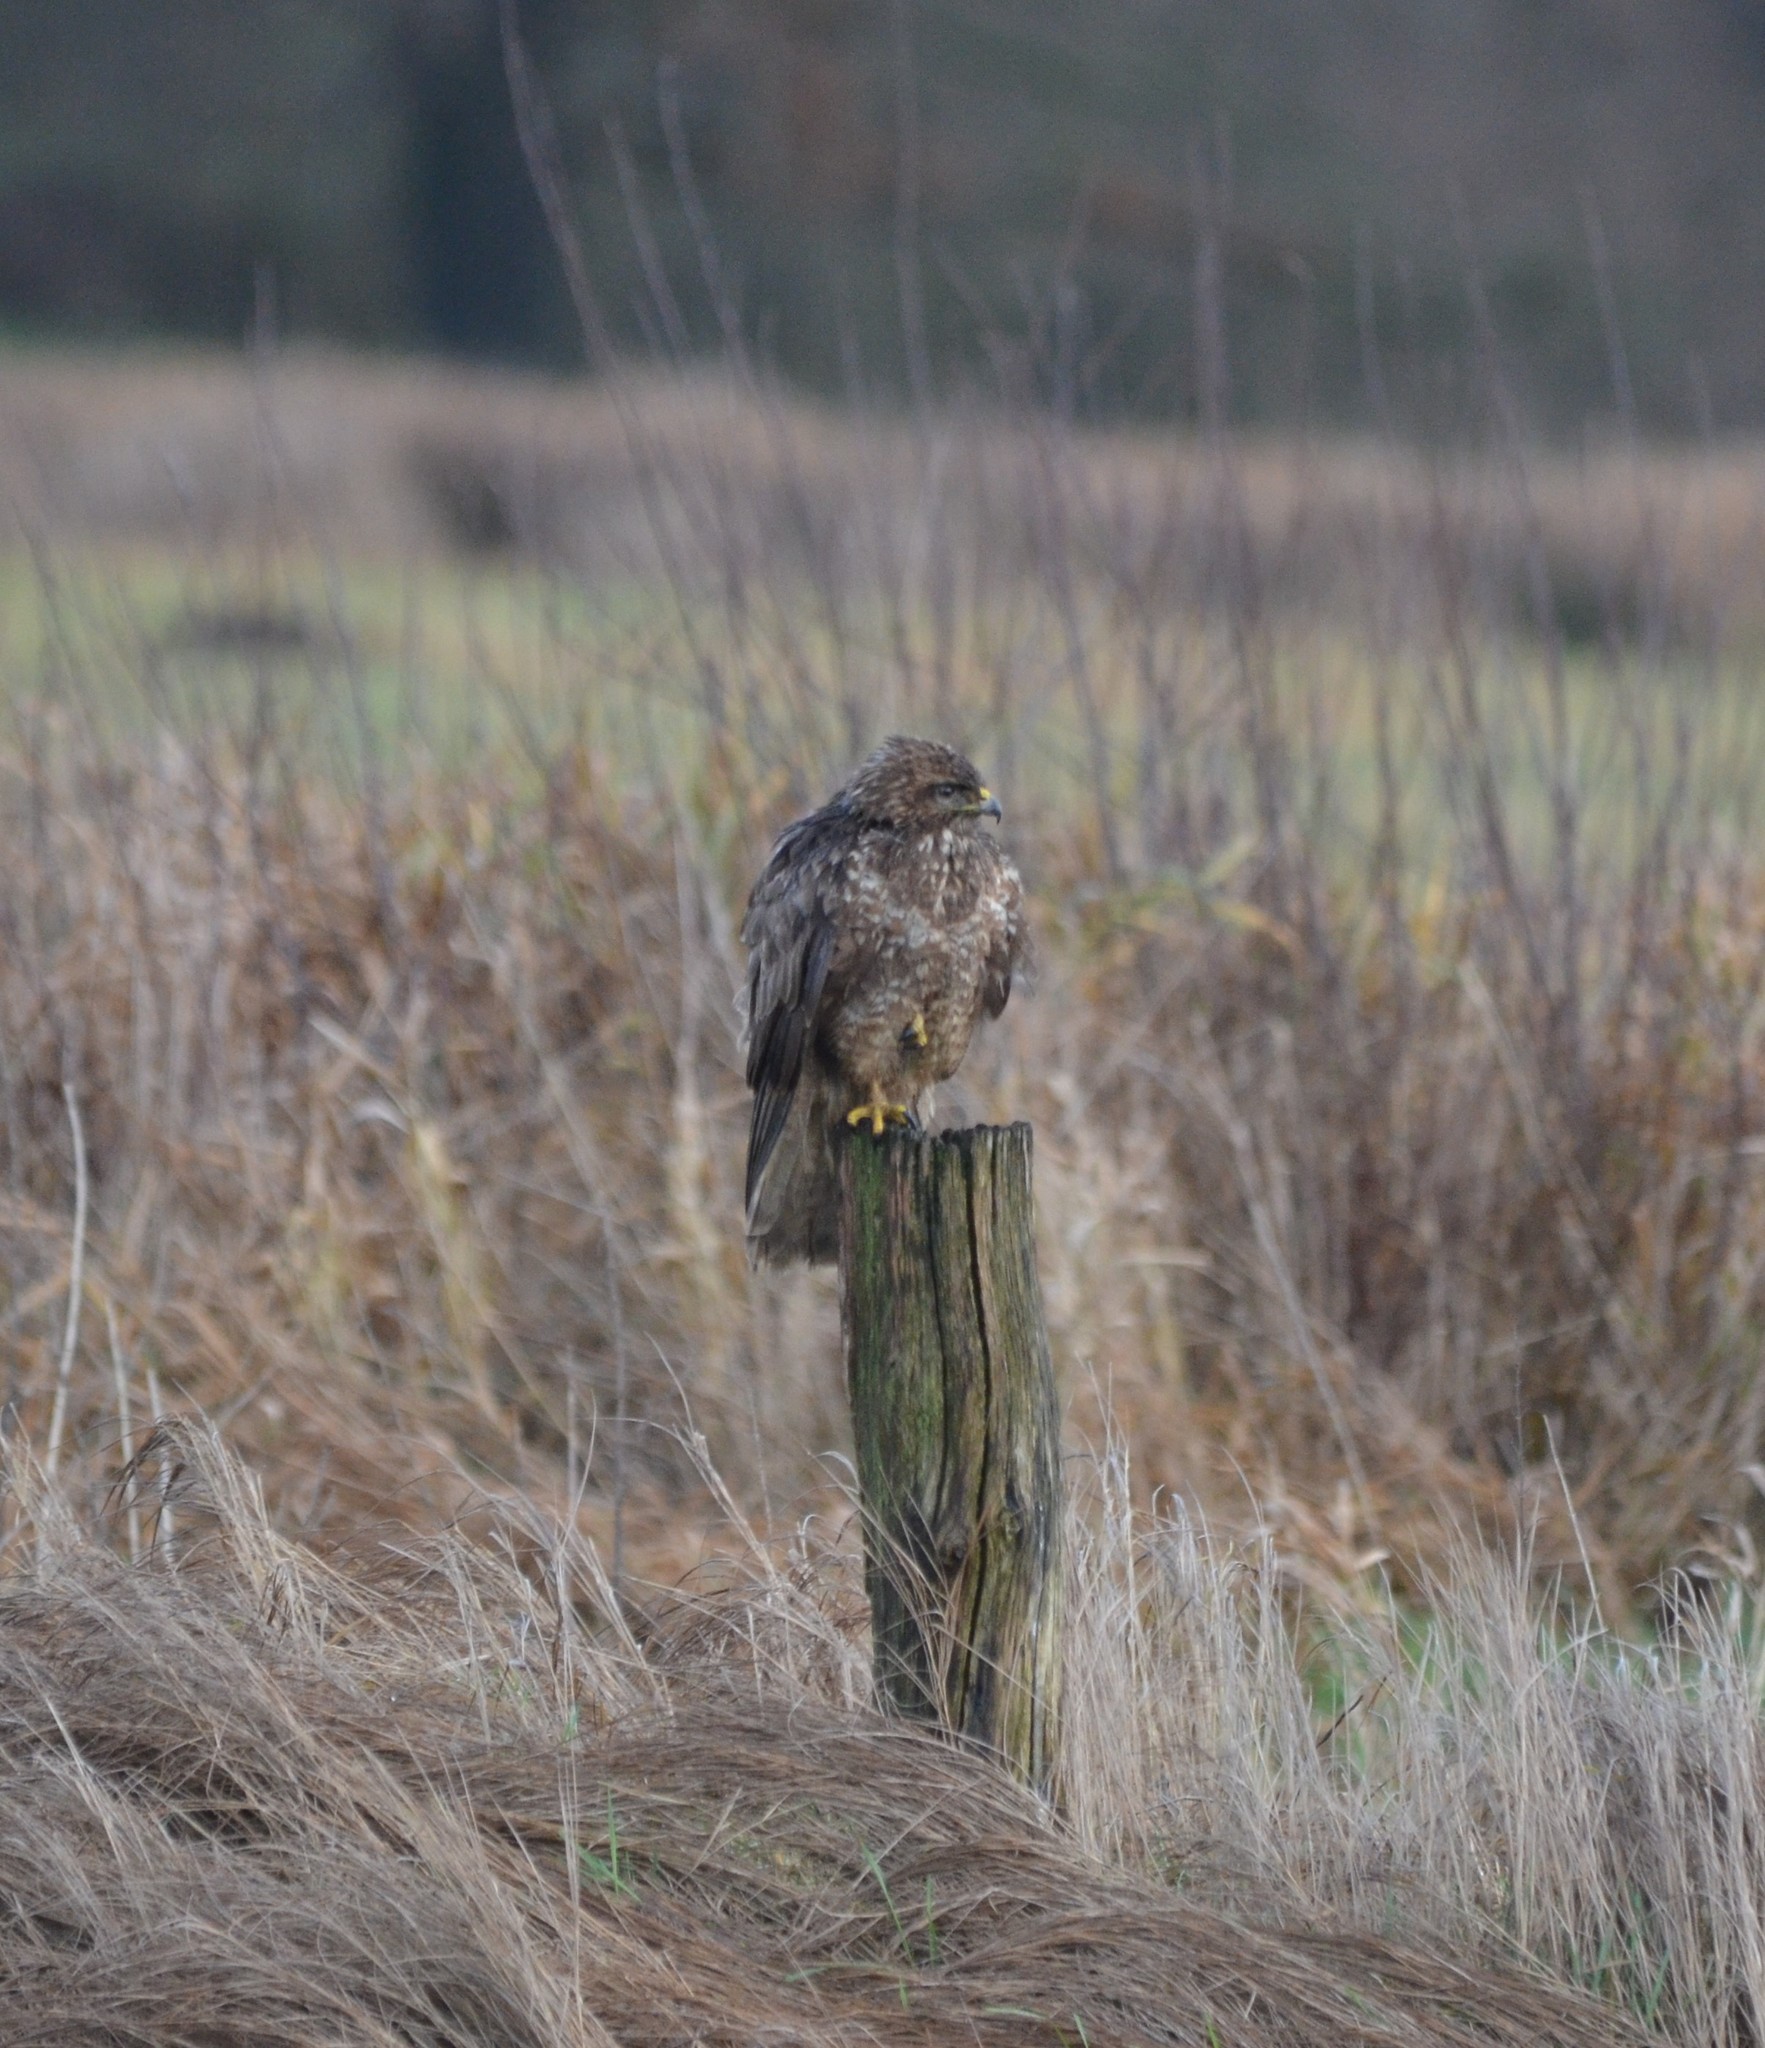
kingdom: Animalia
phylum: Chordata
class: Aves
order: Accipitriformes
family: Accipitridae
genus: Buteo
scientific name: Buteo buteo
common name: Common buzzard
